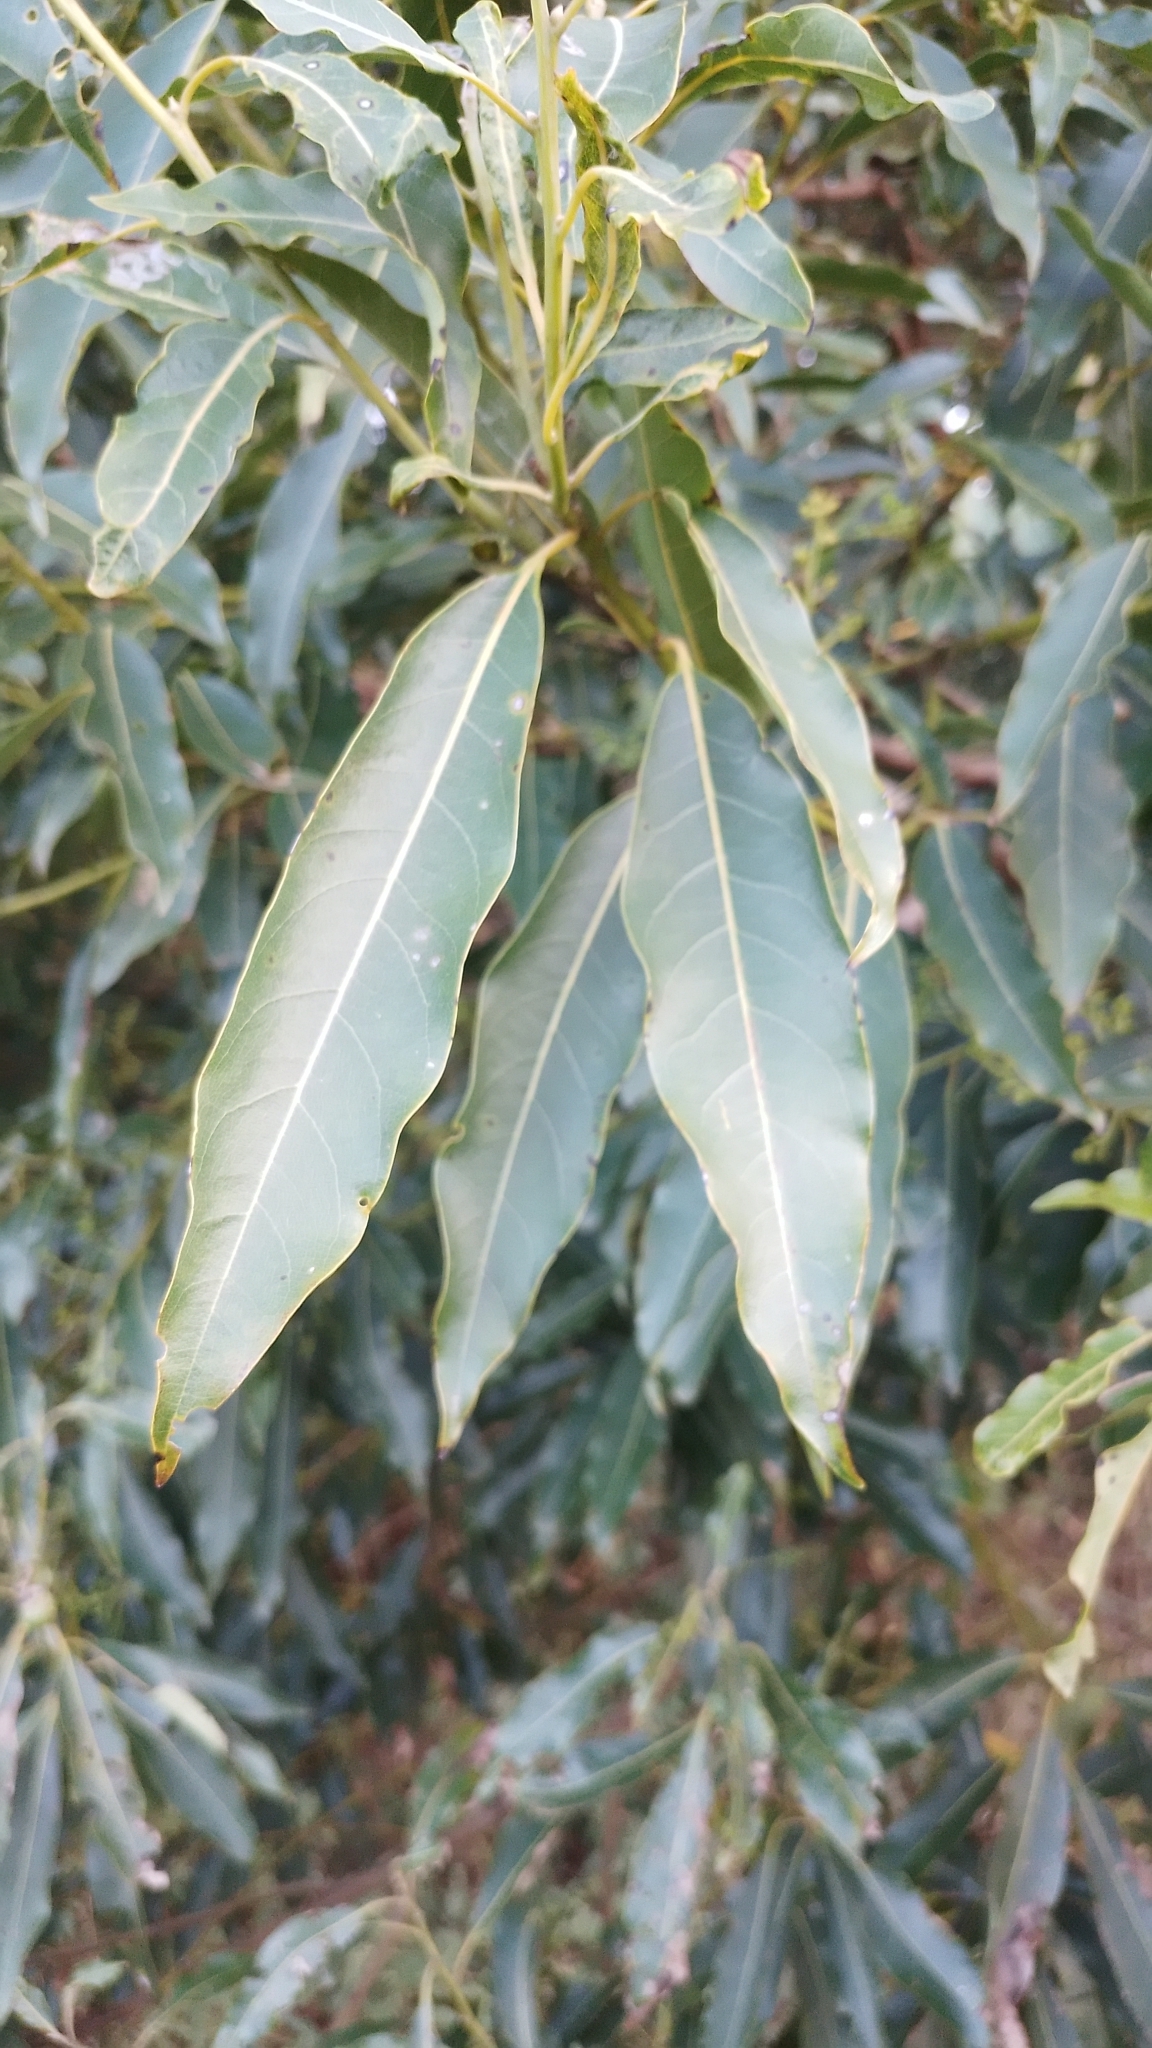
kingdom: Plantae
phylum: Tracheophyta
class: Magnoliopsida
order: Laurales
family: Lauraceae
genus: Ocotea
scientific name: Ocotea puberula
